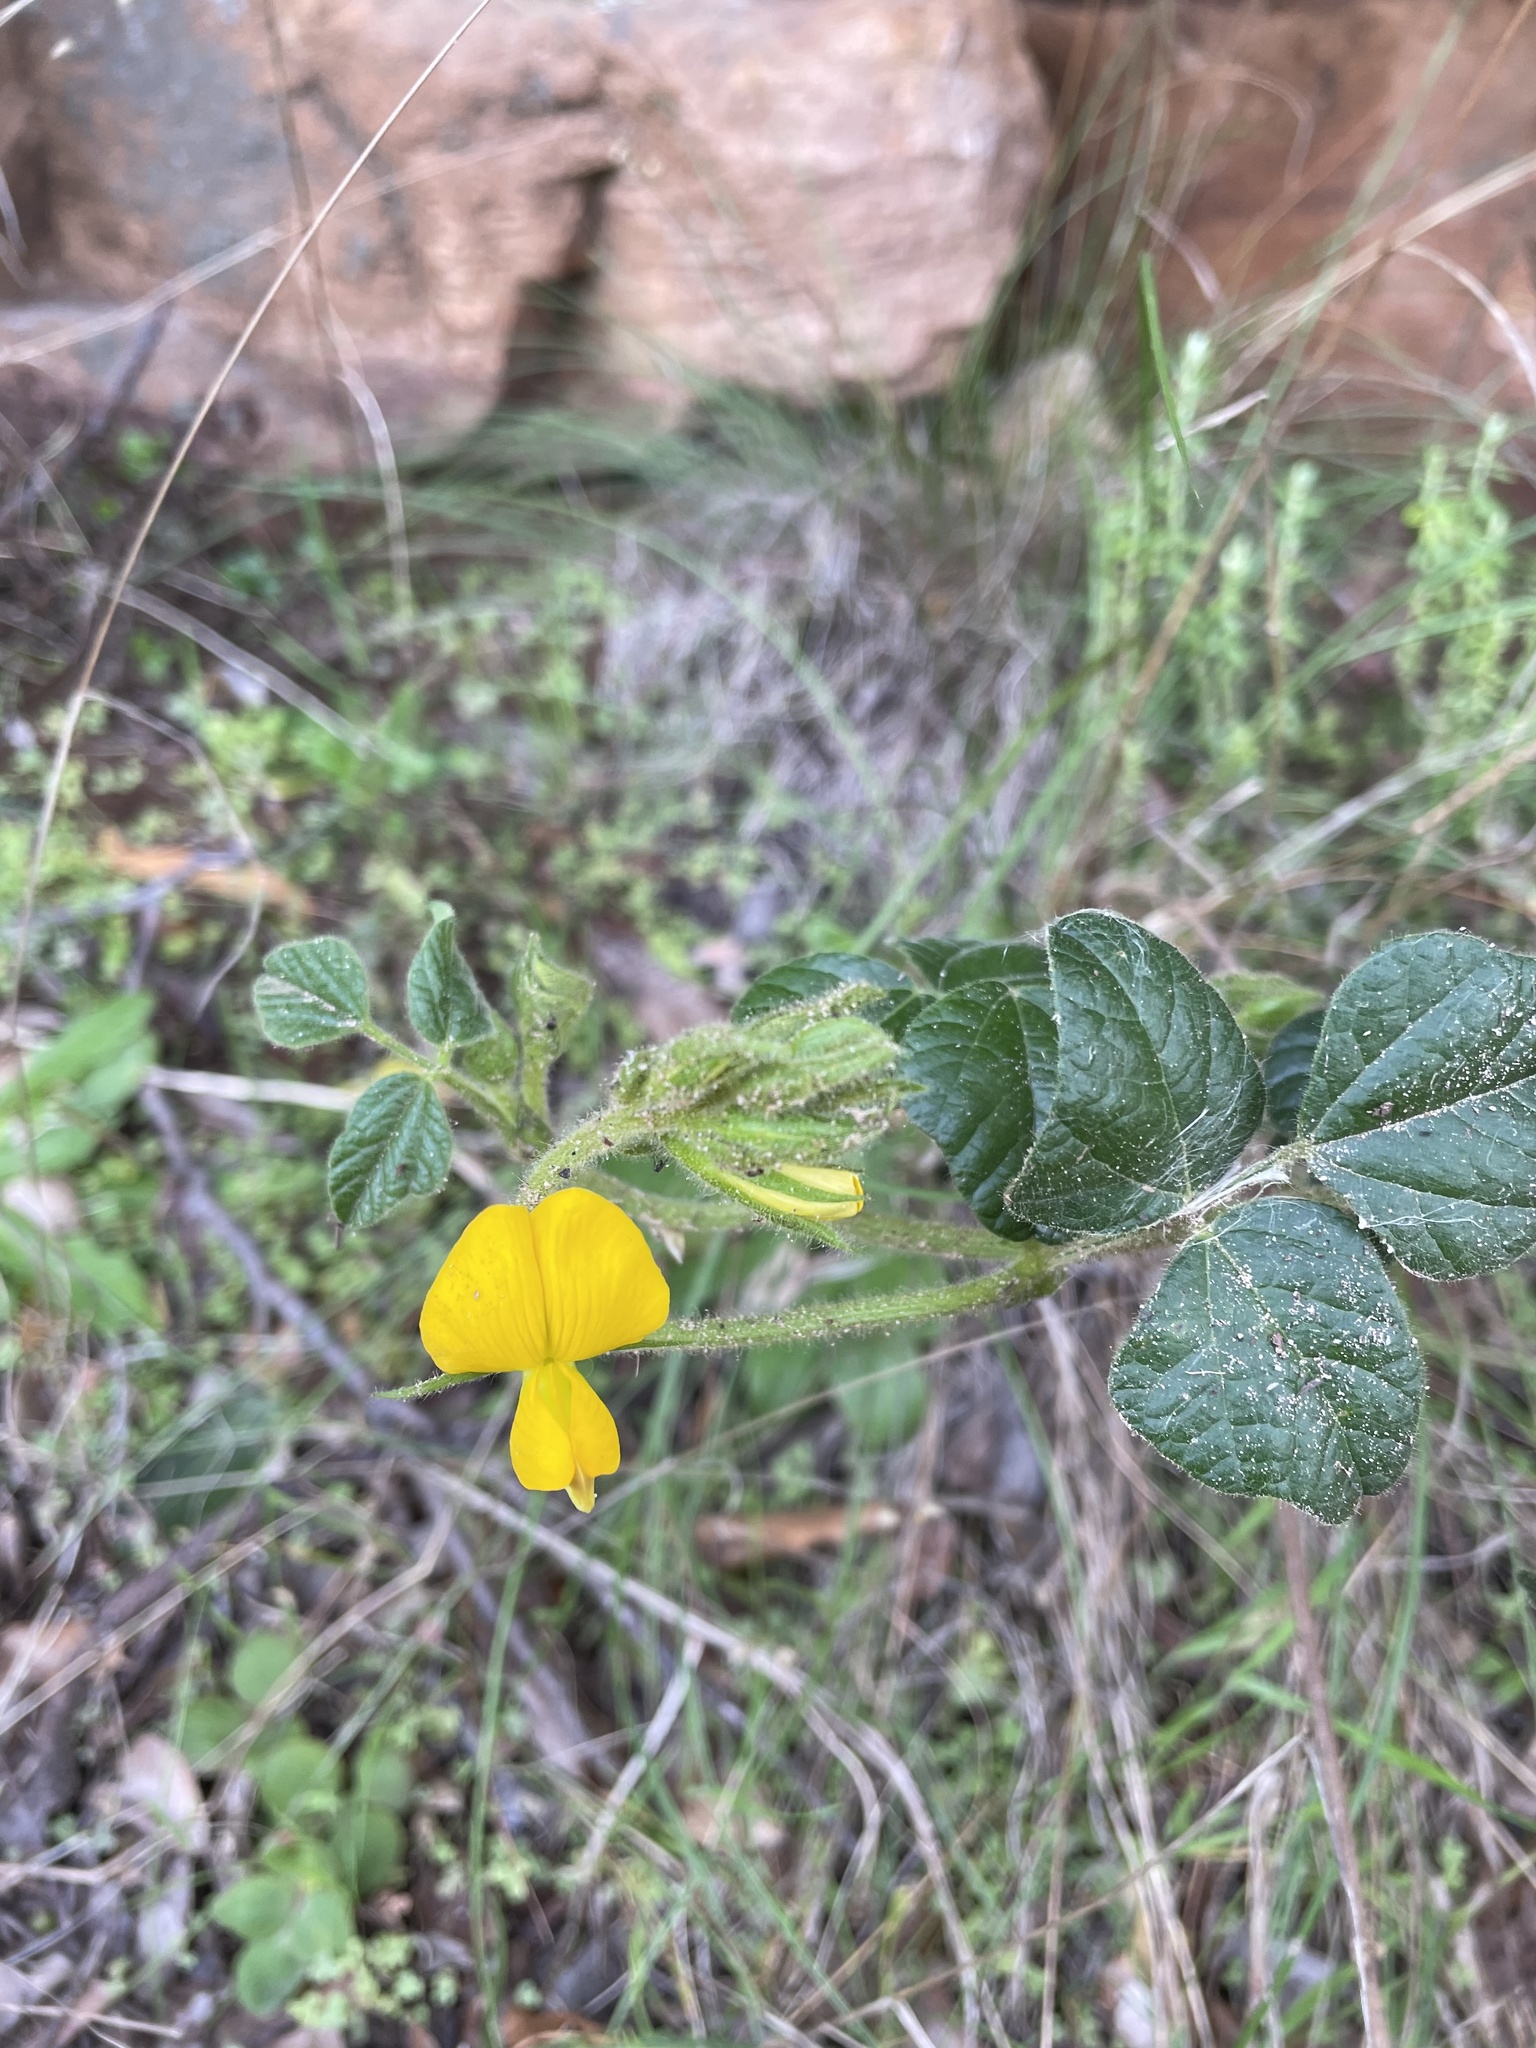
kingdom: Plantae
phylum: Tracheophyta
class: Magnoliopsida
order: Fabales
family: Fabaceae
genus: Bolusafra
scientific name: Bolusafra bituminosa
